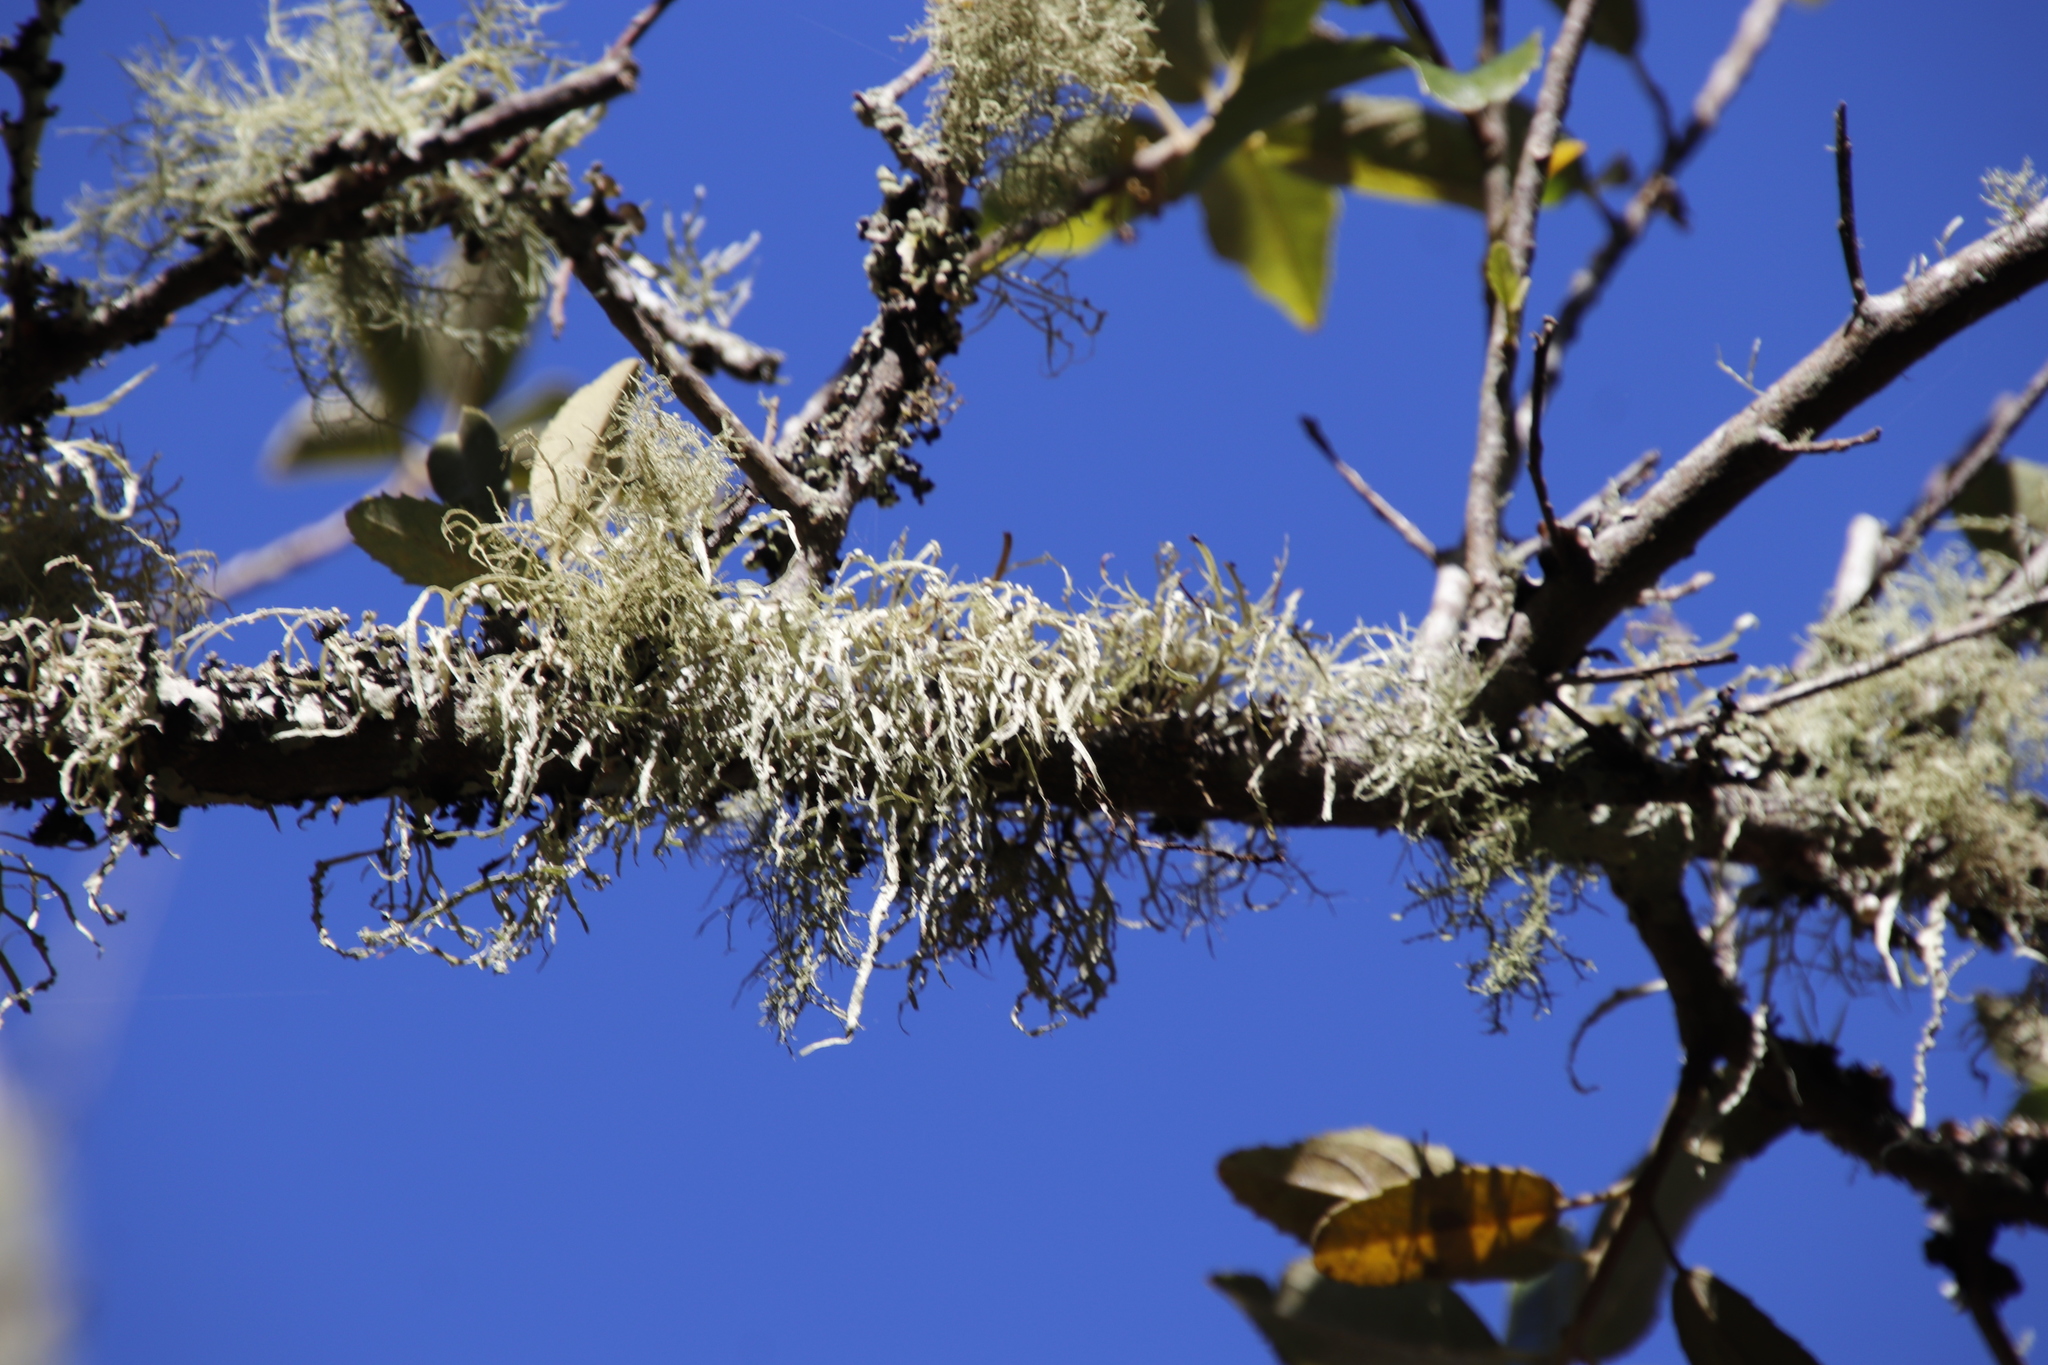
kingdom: Fungi
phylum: Ascomycota
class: Lecanoromycetes
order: Lecanorales
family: Ramalinaceae
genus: Ramalina
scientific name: Ramalina celastri
